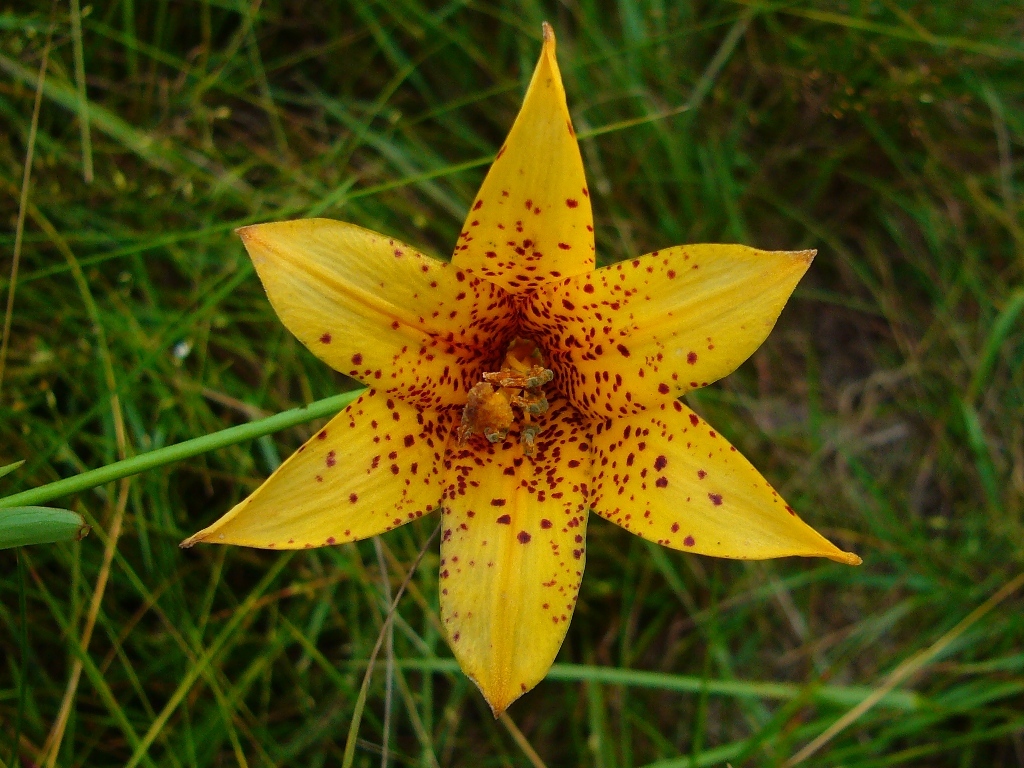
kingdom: Plantae
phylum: Tracheophyta
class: Liliopsida
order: Liliales
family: Liliaceae
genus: Lilium
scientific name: Lilium canadense
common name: Canada lily
